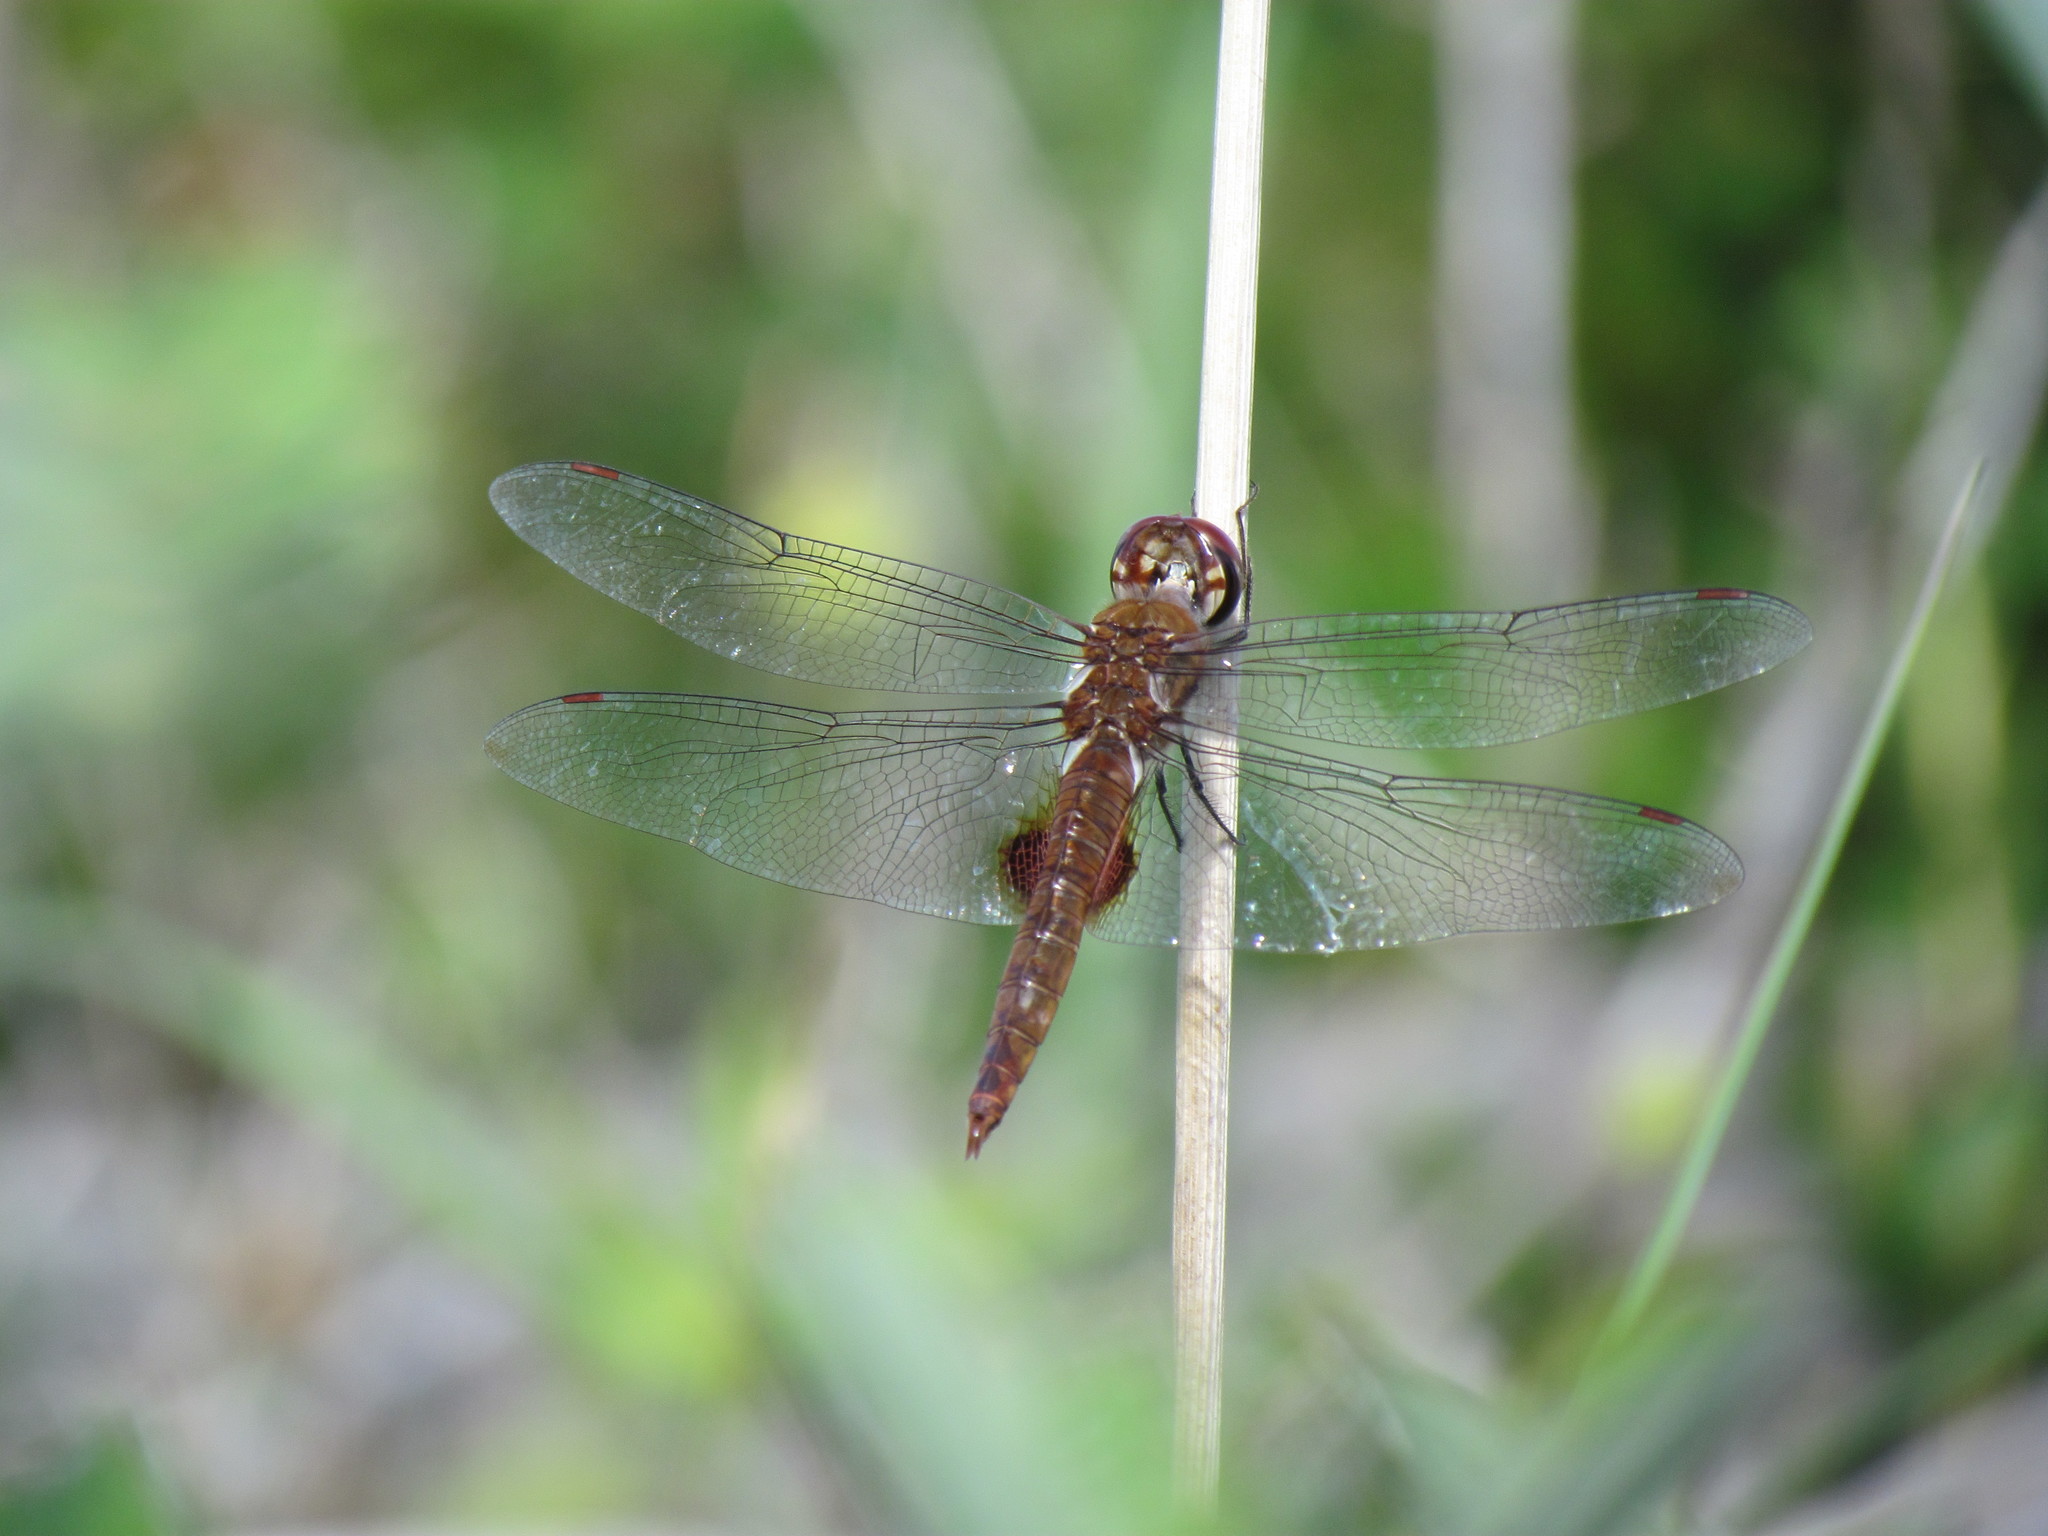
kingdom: Animalia
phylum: Arthropoda
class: Insecta
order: Odonata
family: Libellulidae
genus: Pantala
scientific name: Pantala hymenaea
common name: Spot-winged glider
